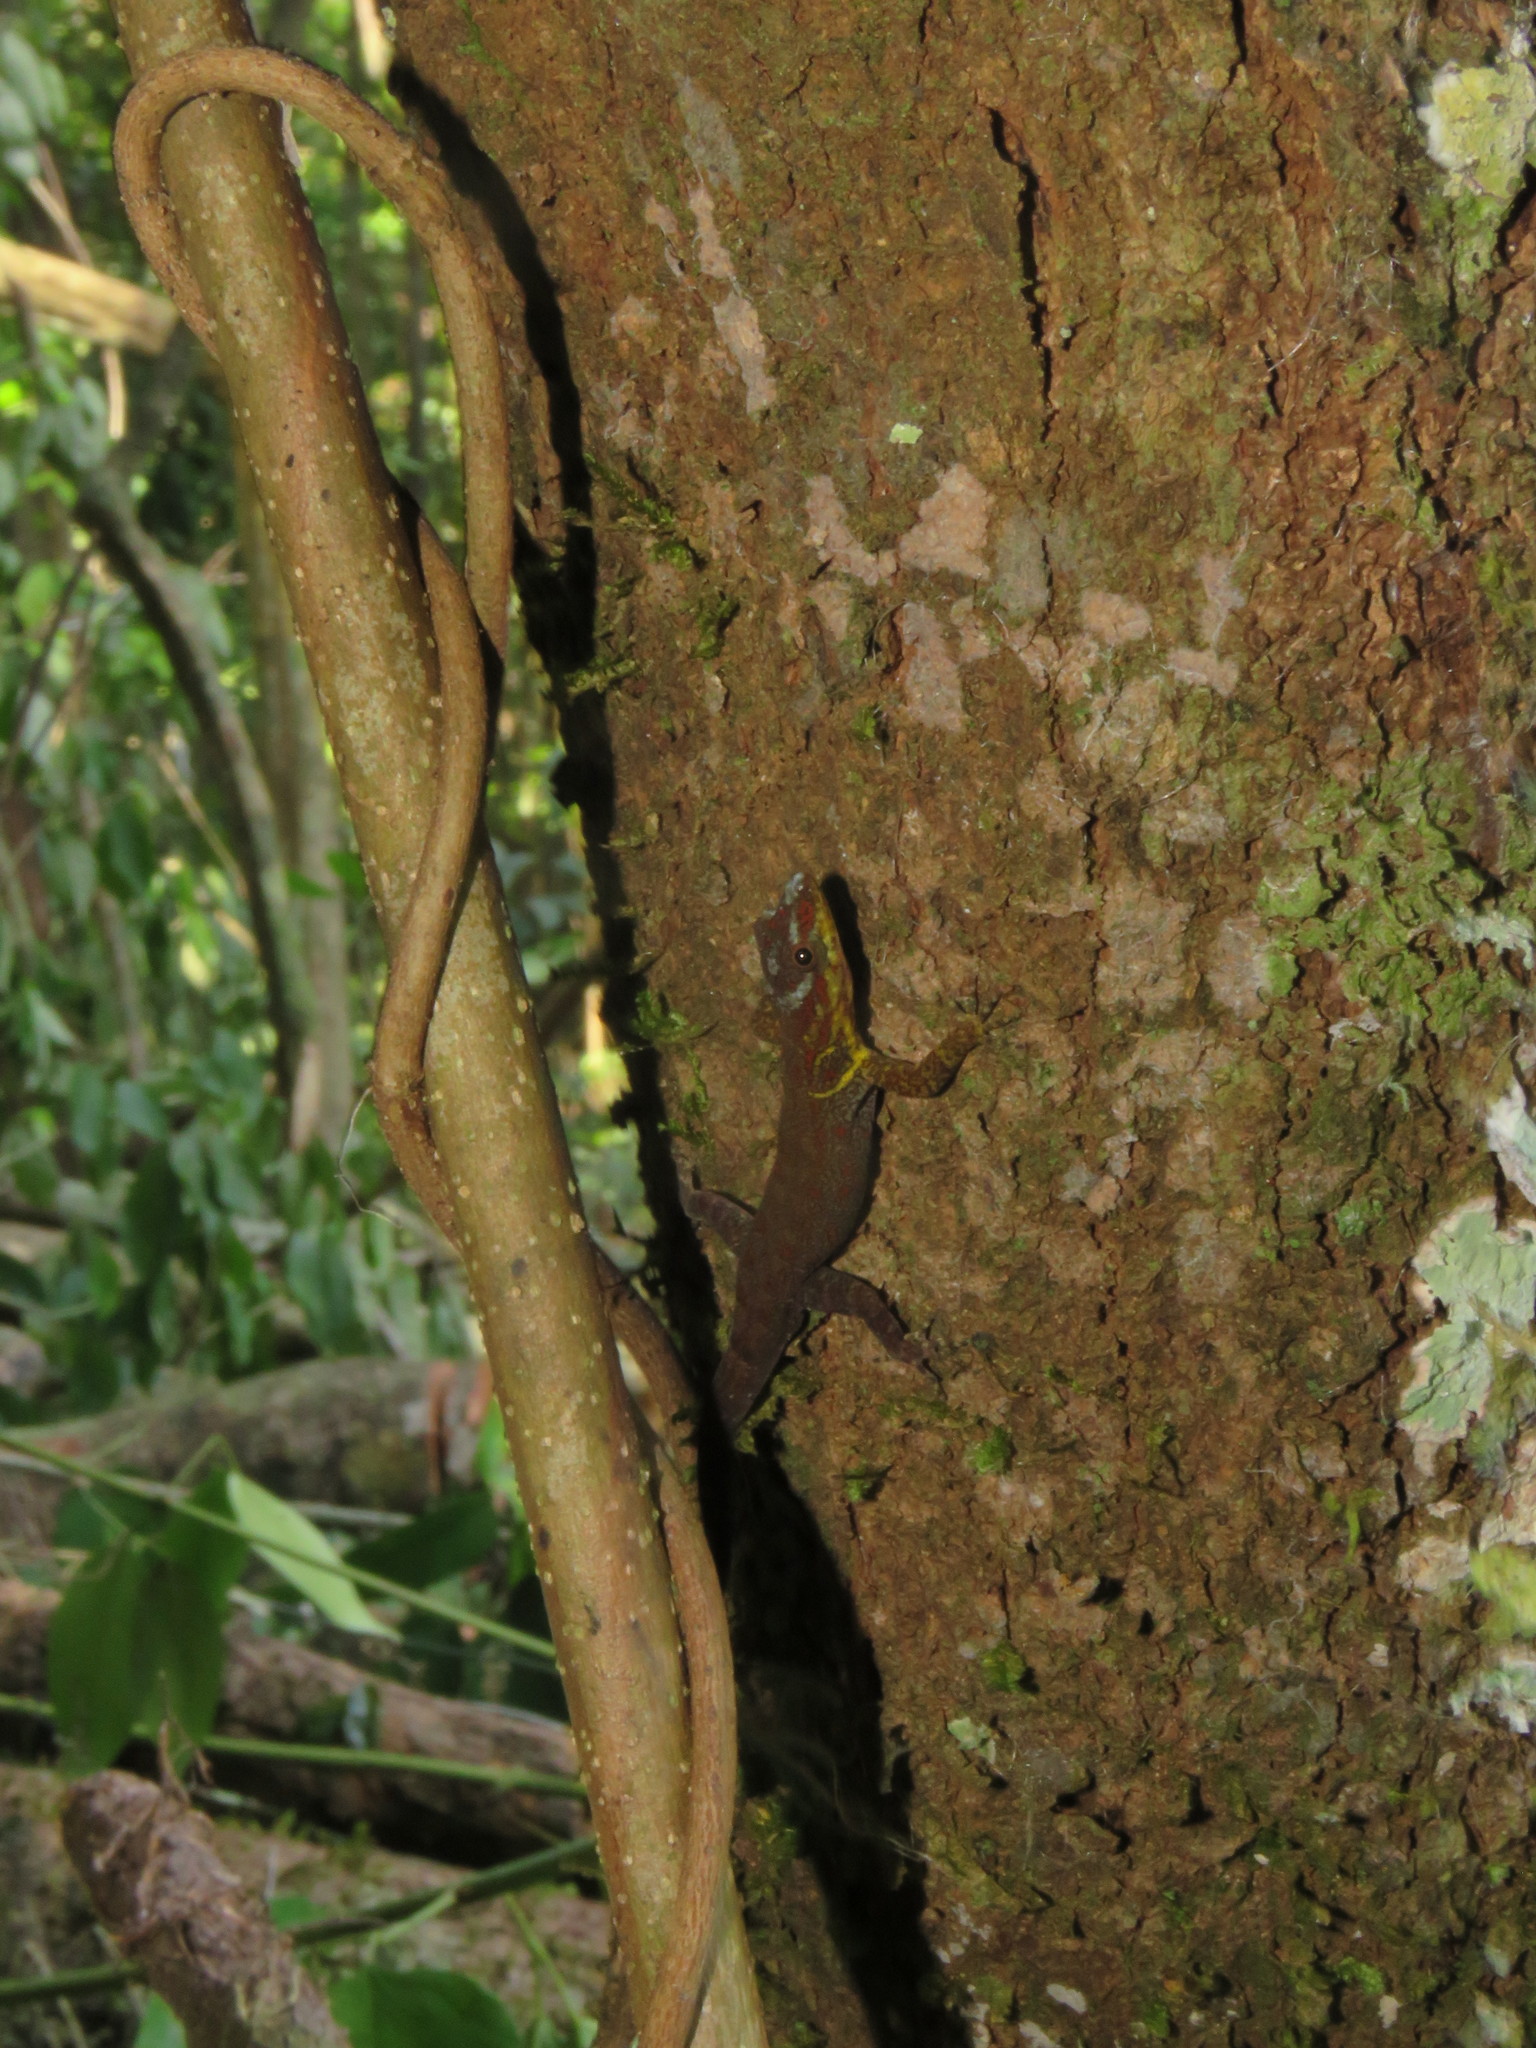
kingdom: Animalia
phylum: Chordata
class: Squamata
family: Sphaerodactylidae
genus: Gonatodes
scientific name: Gonatodes humeralis
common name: South american clawed gecko
